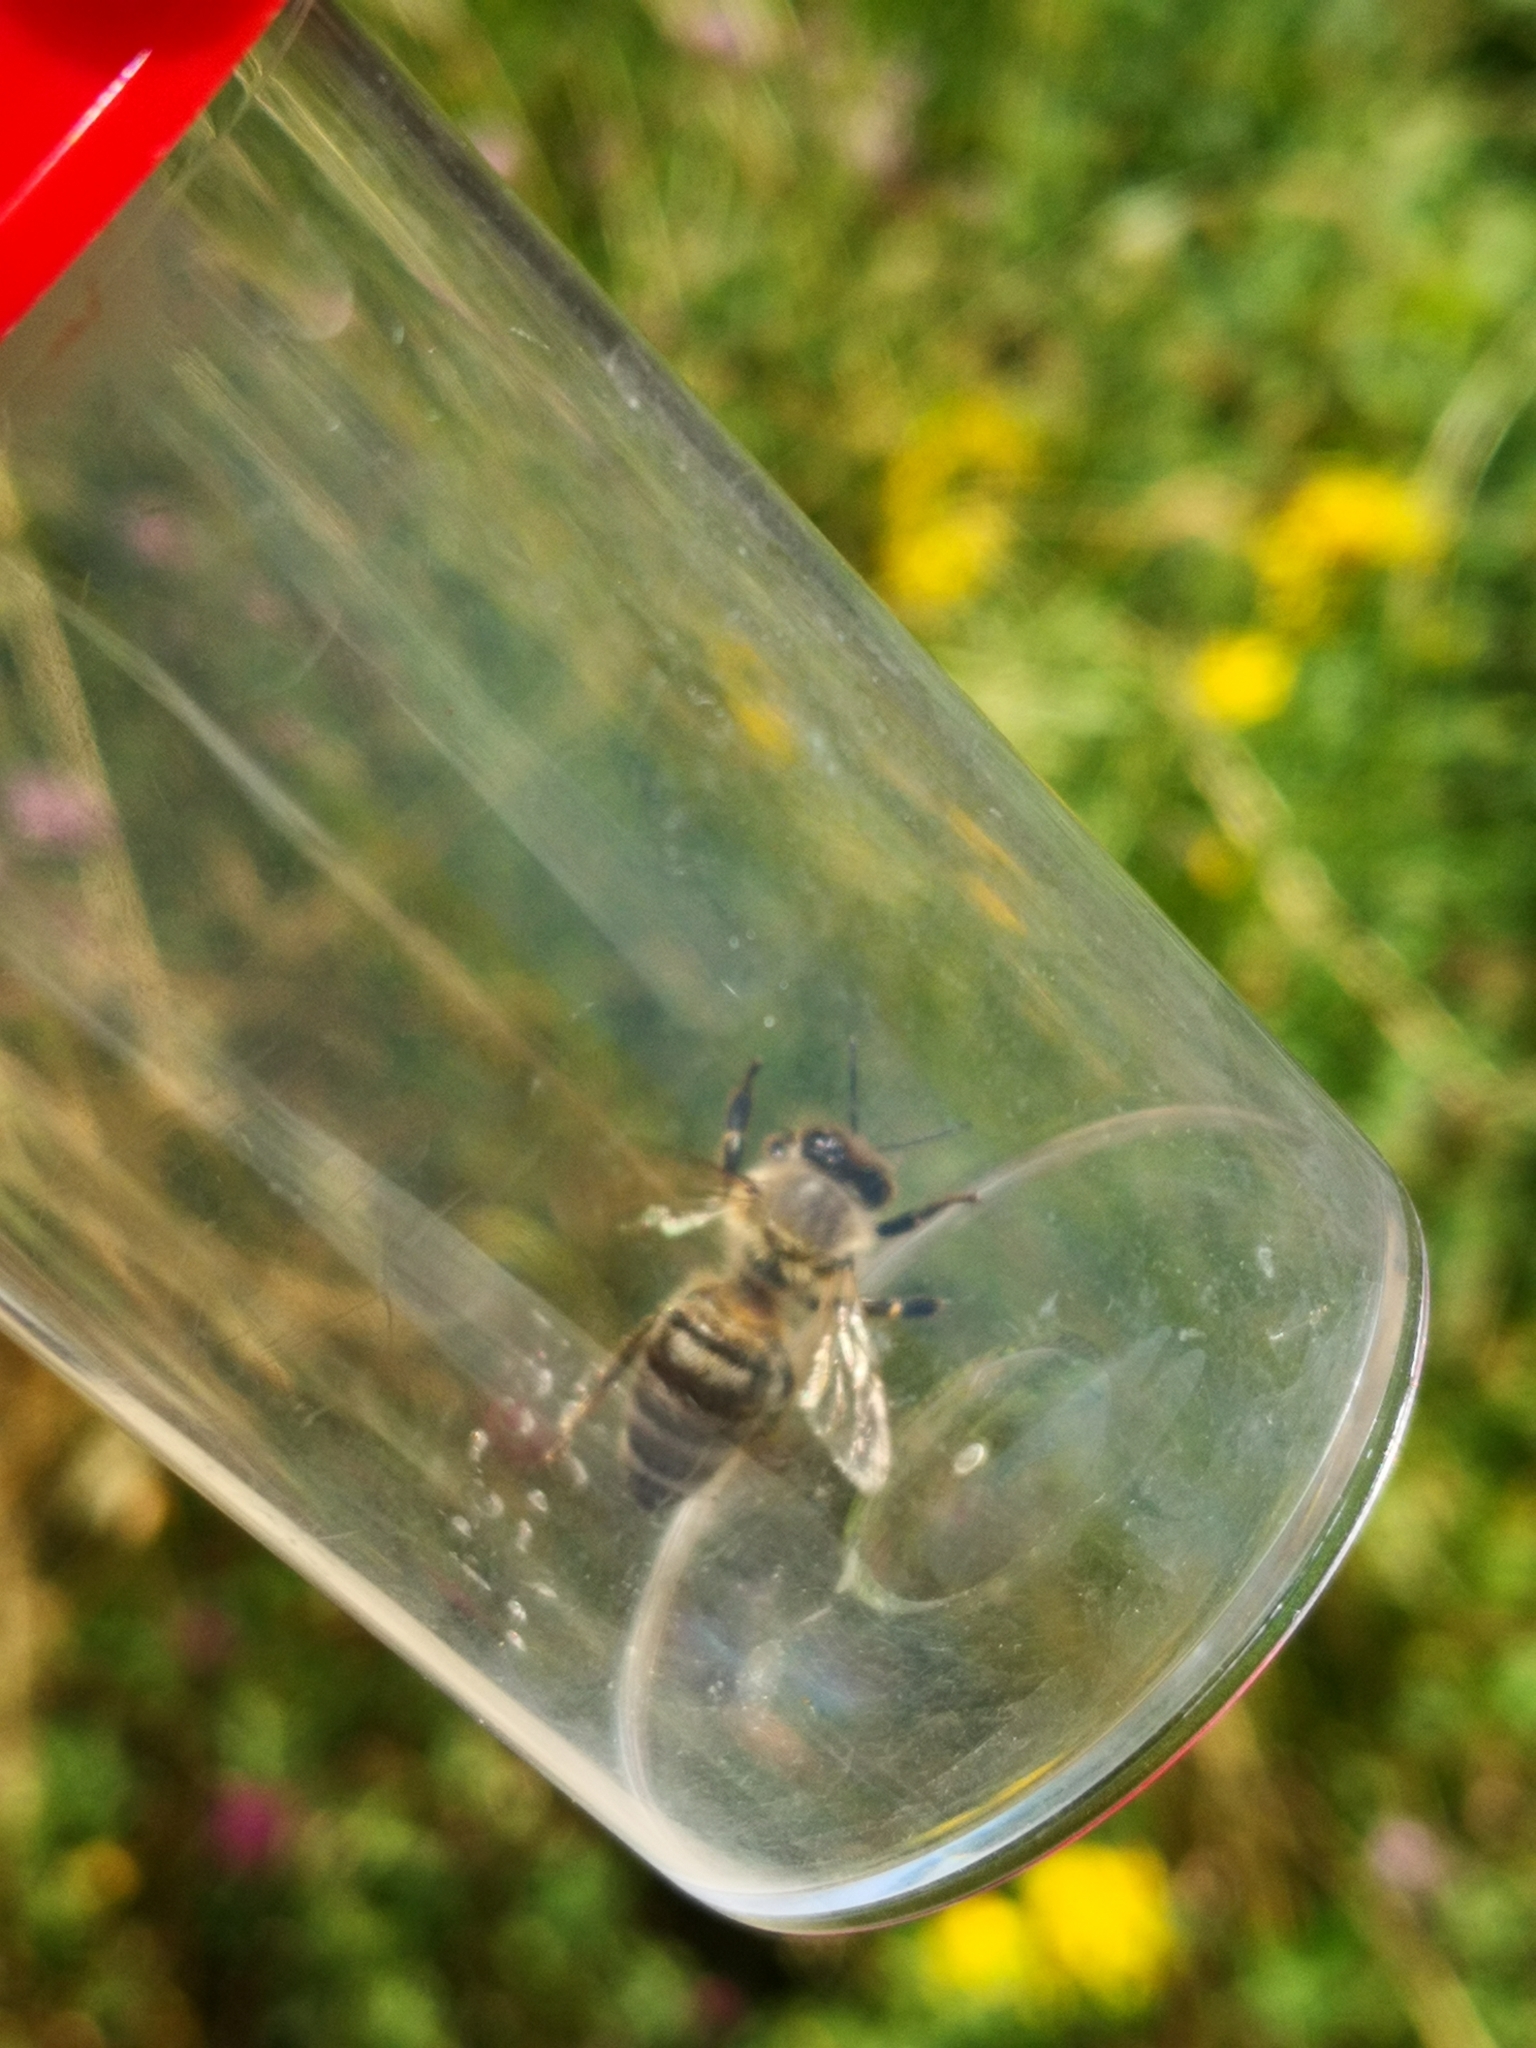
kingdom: Animalia
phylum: Arthropoda
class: Insecta
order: Hymenoptera
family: Apidae
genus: Apis
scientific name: Apis mellifera
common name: Honey bee
